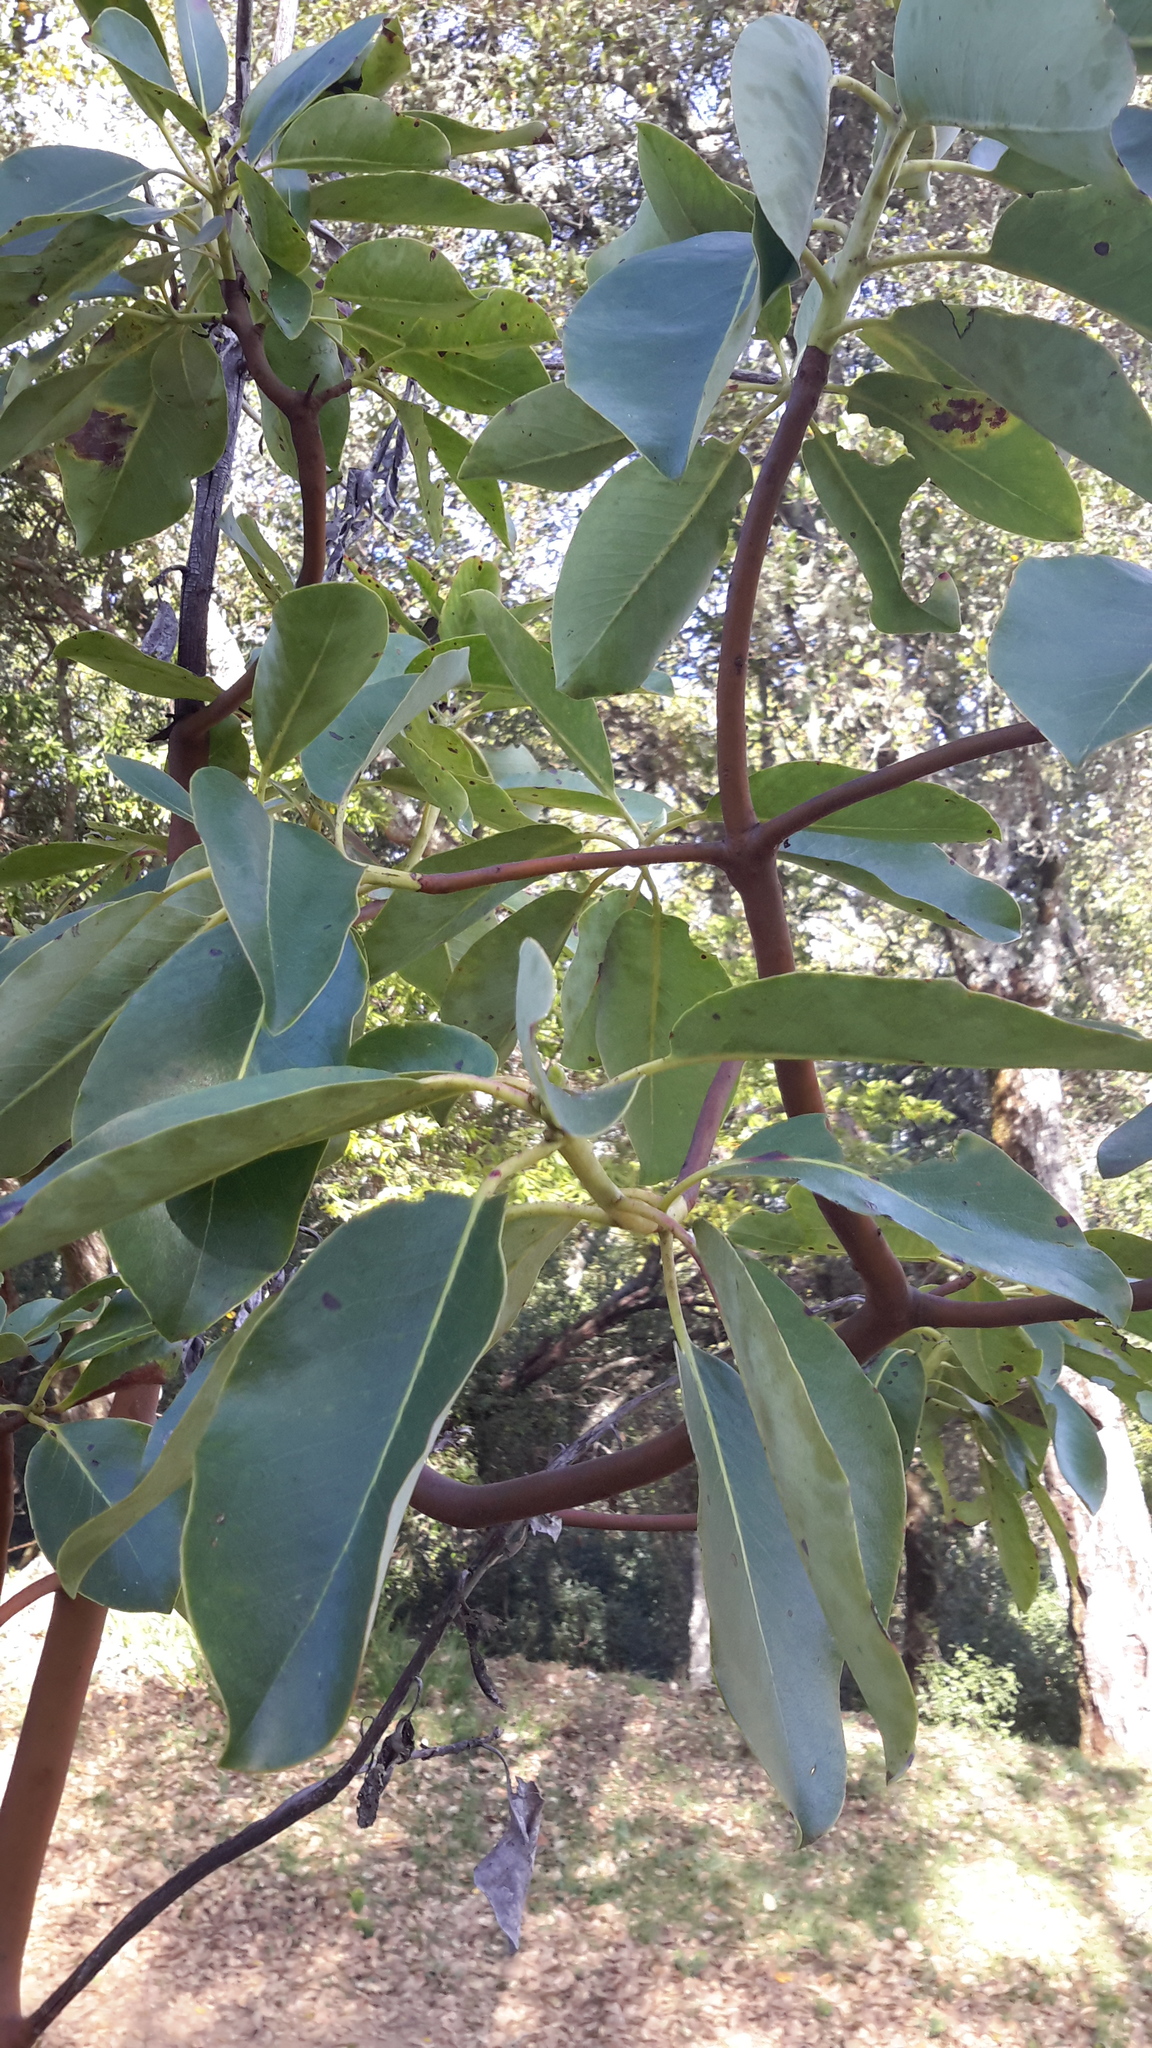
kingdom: Plantae
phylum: Tracheophyta
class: Magnoliopsida
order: Ericales
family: Ericaceae
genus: Arbutus
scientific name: Arbutus menziesii
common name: Pacific madrone
